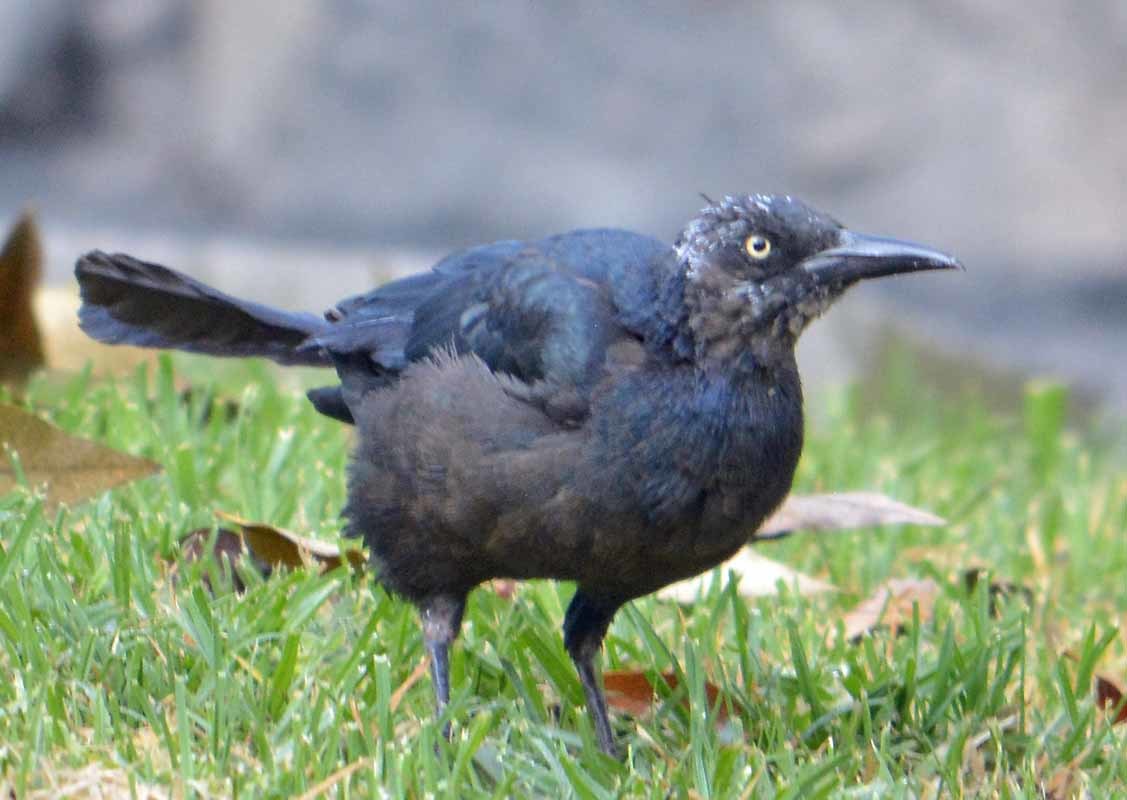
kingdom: Animalia
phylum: Chordata
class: Aves
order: Passeriformes
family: Icteridae
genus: Quiscalus
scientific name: Quiscalus mexicanus
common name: Great-tailed grackle
